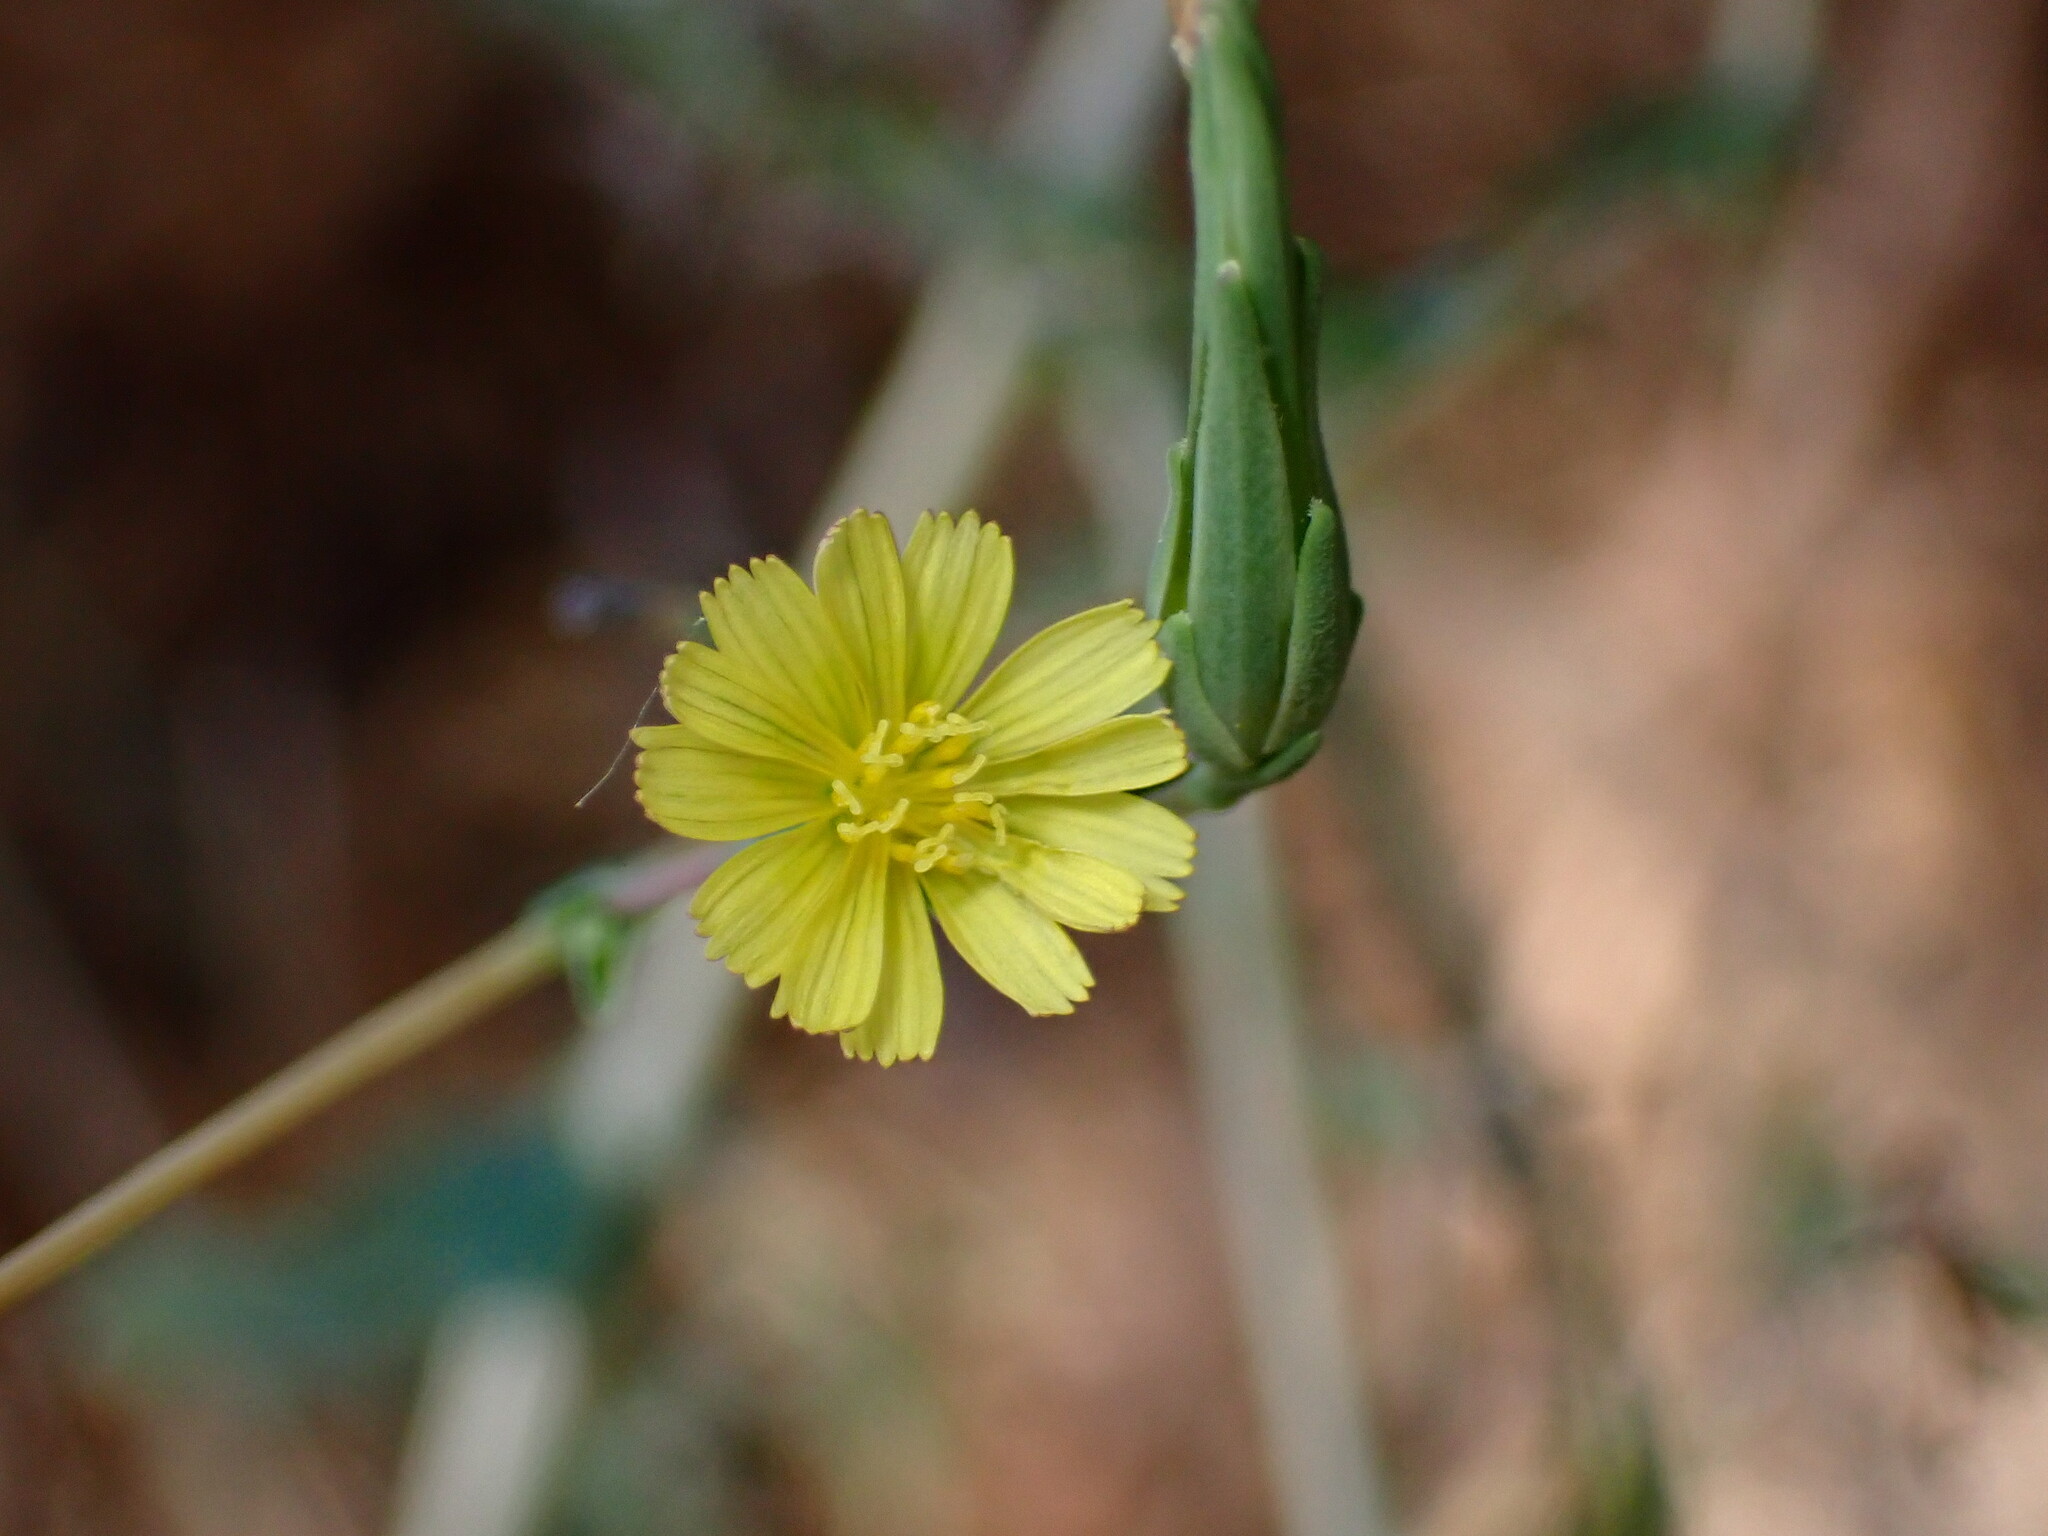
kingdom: Plantae
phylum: Tracheophyta
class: Magnoliopsida
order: Asterales
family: Asteraceae
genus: Lactuca
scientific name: Lactuca serriola
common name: Prickly lettuce
